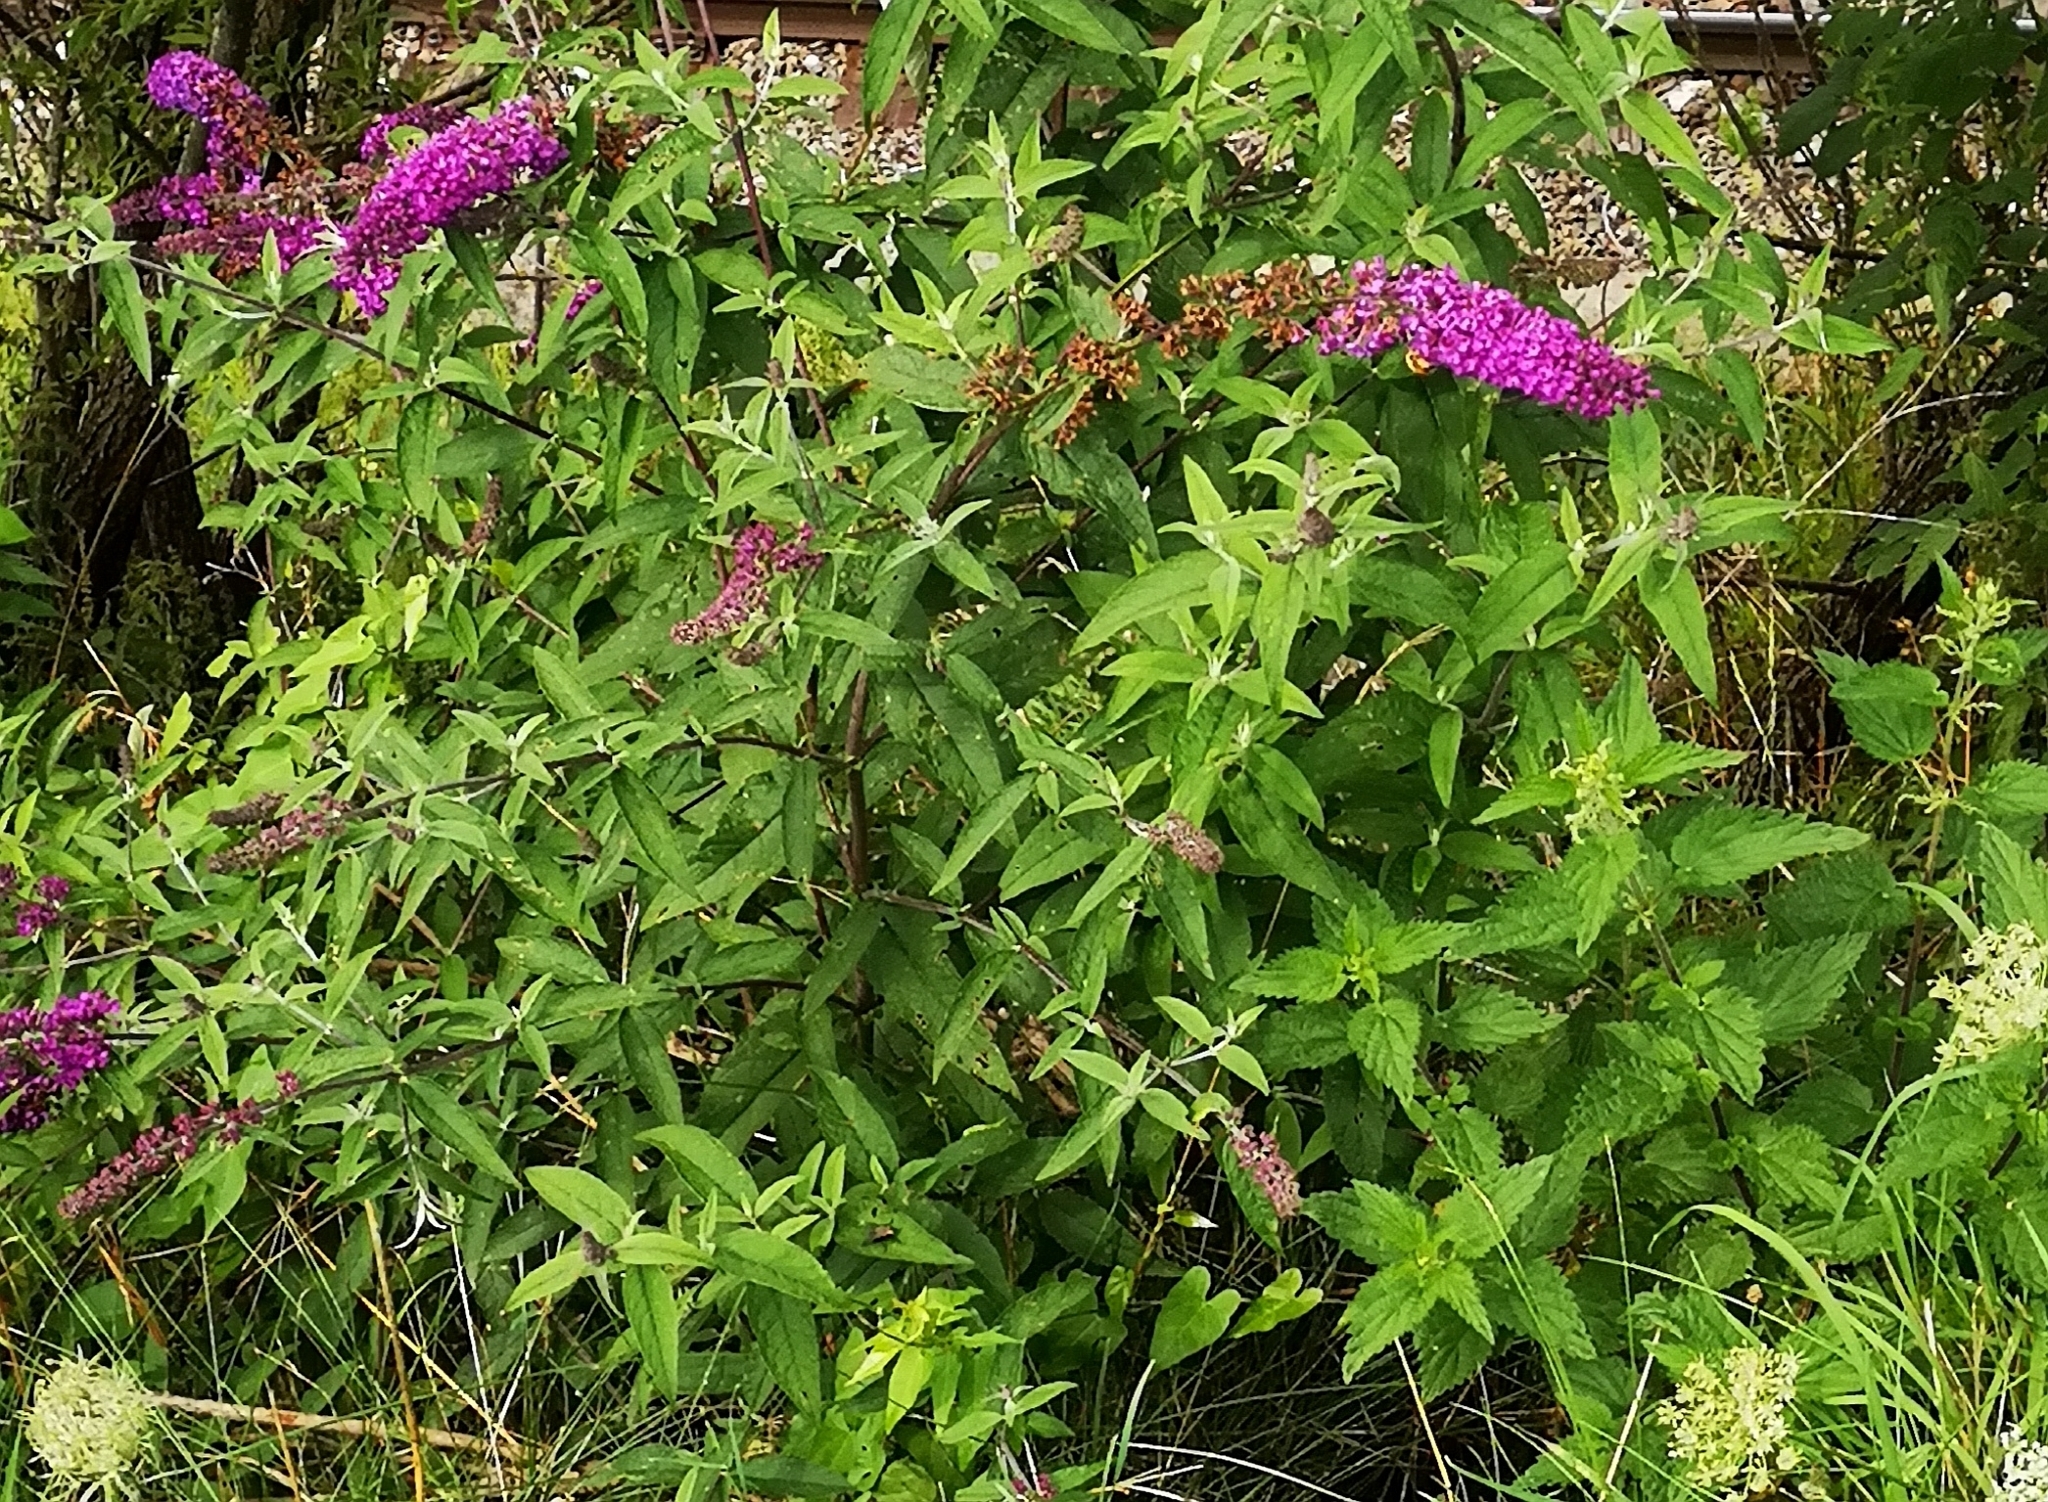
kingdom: Plantae
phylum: Tracheophyta
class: Magnoliopsida
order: Lamiales
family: Scrophulariaceae
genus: Buddleja
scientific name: Buddleja davidii
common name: Butterfly-bush
